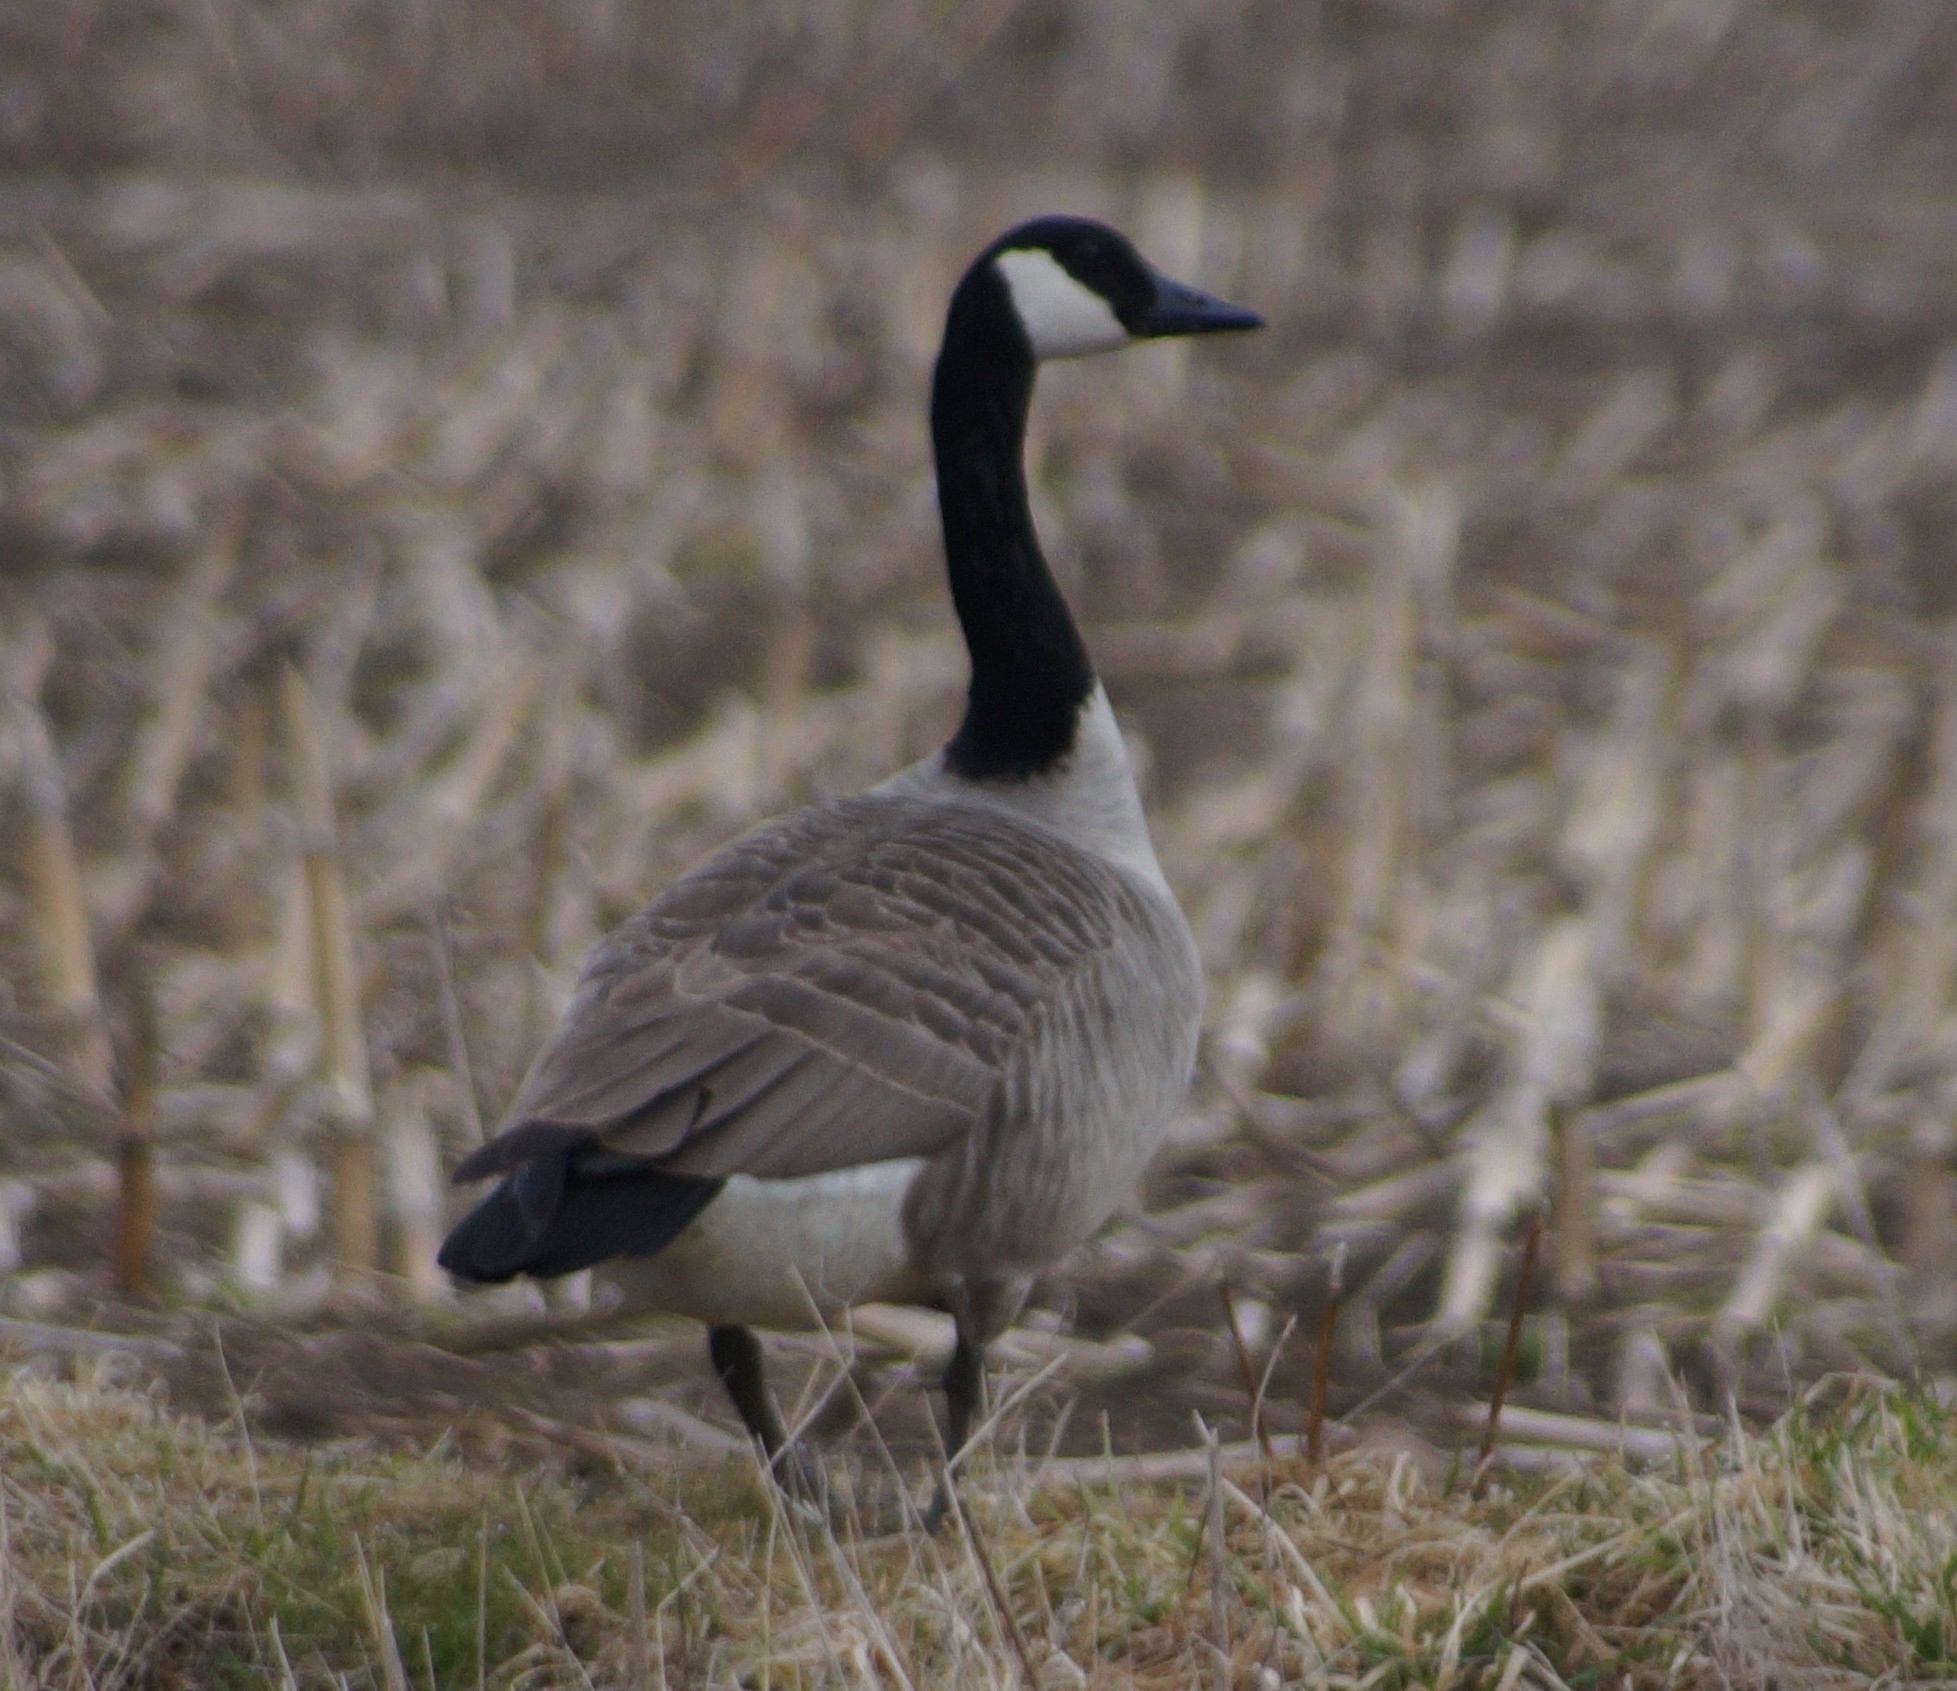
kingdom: Animalia
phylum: Chordata
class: Aves
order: Anseriformes
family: Anatidae
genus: Branta
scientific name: Branta canadensis
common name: Canada goose
